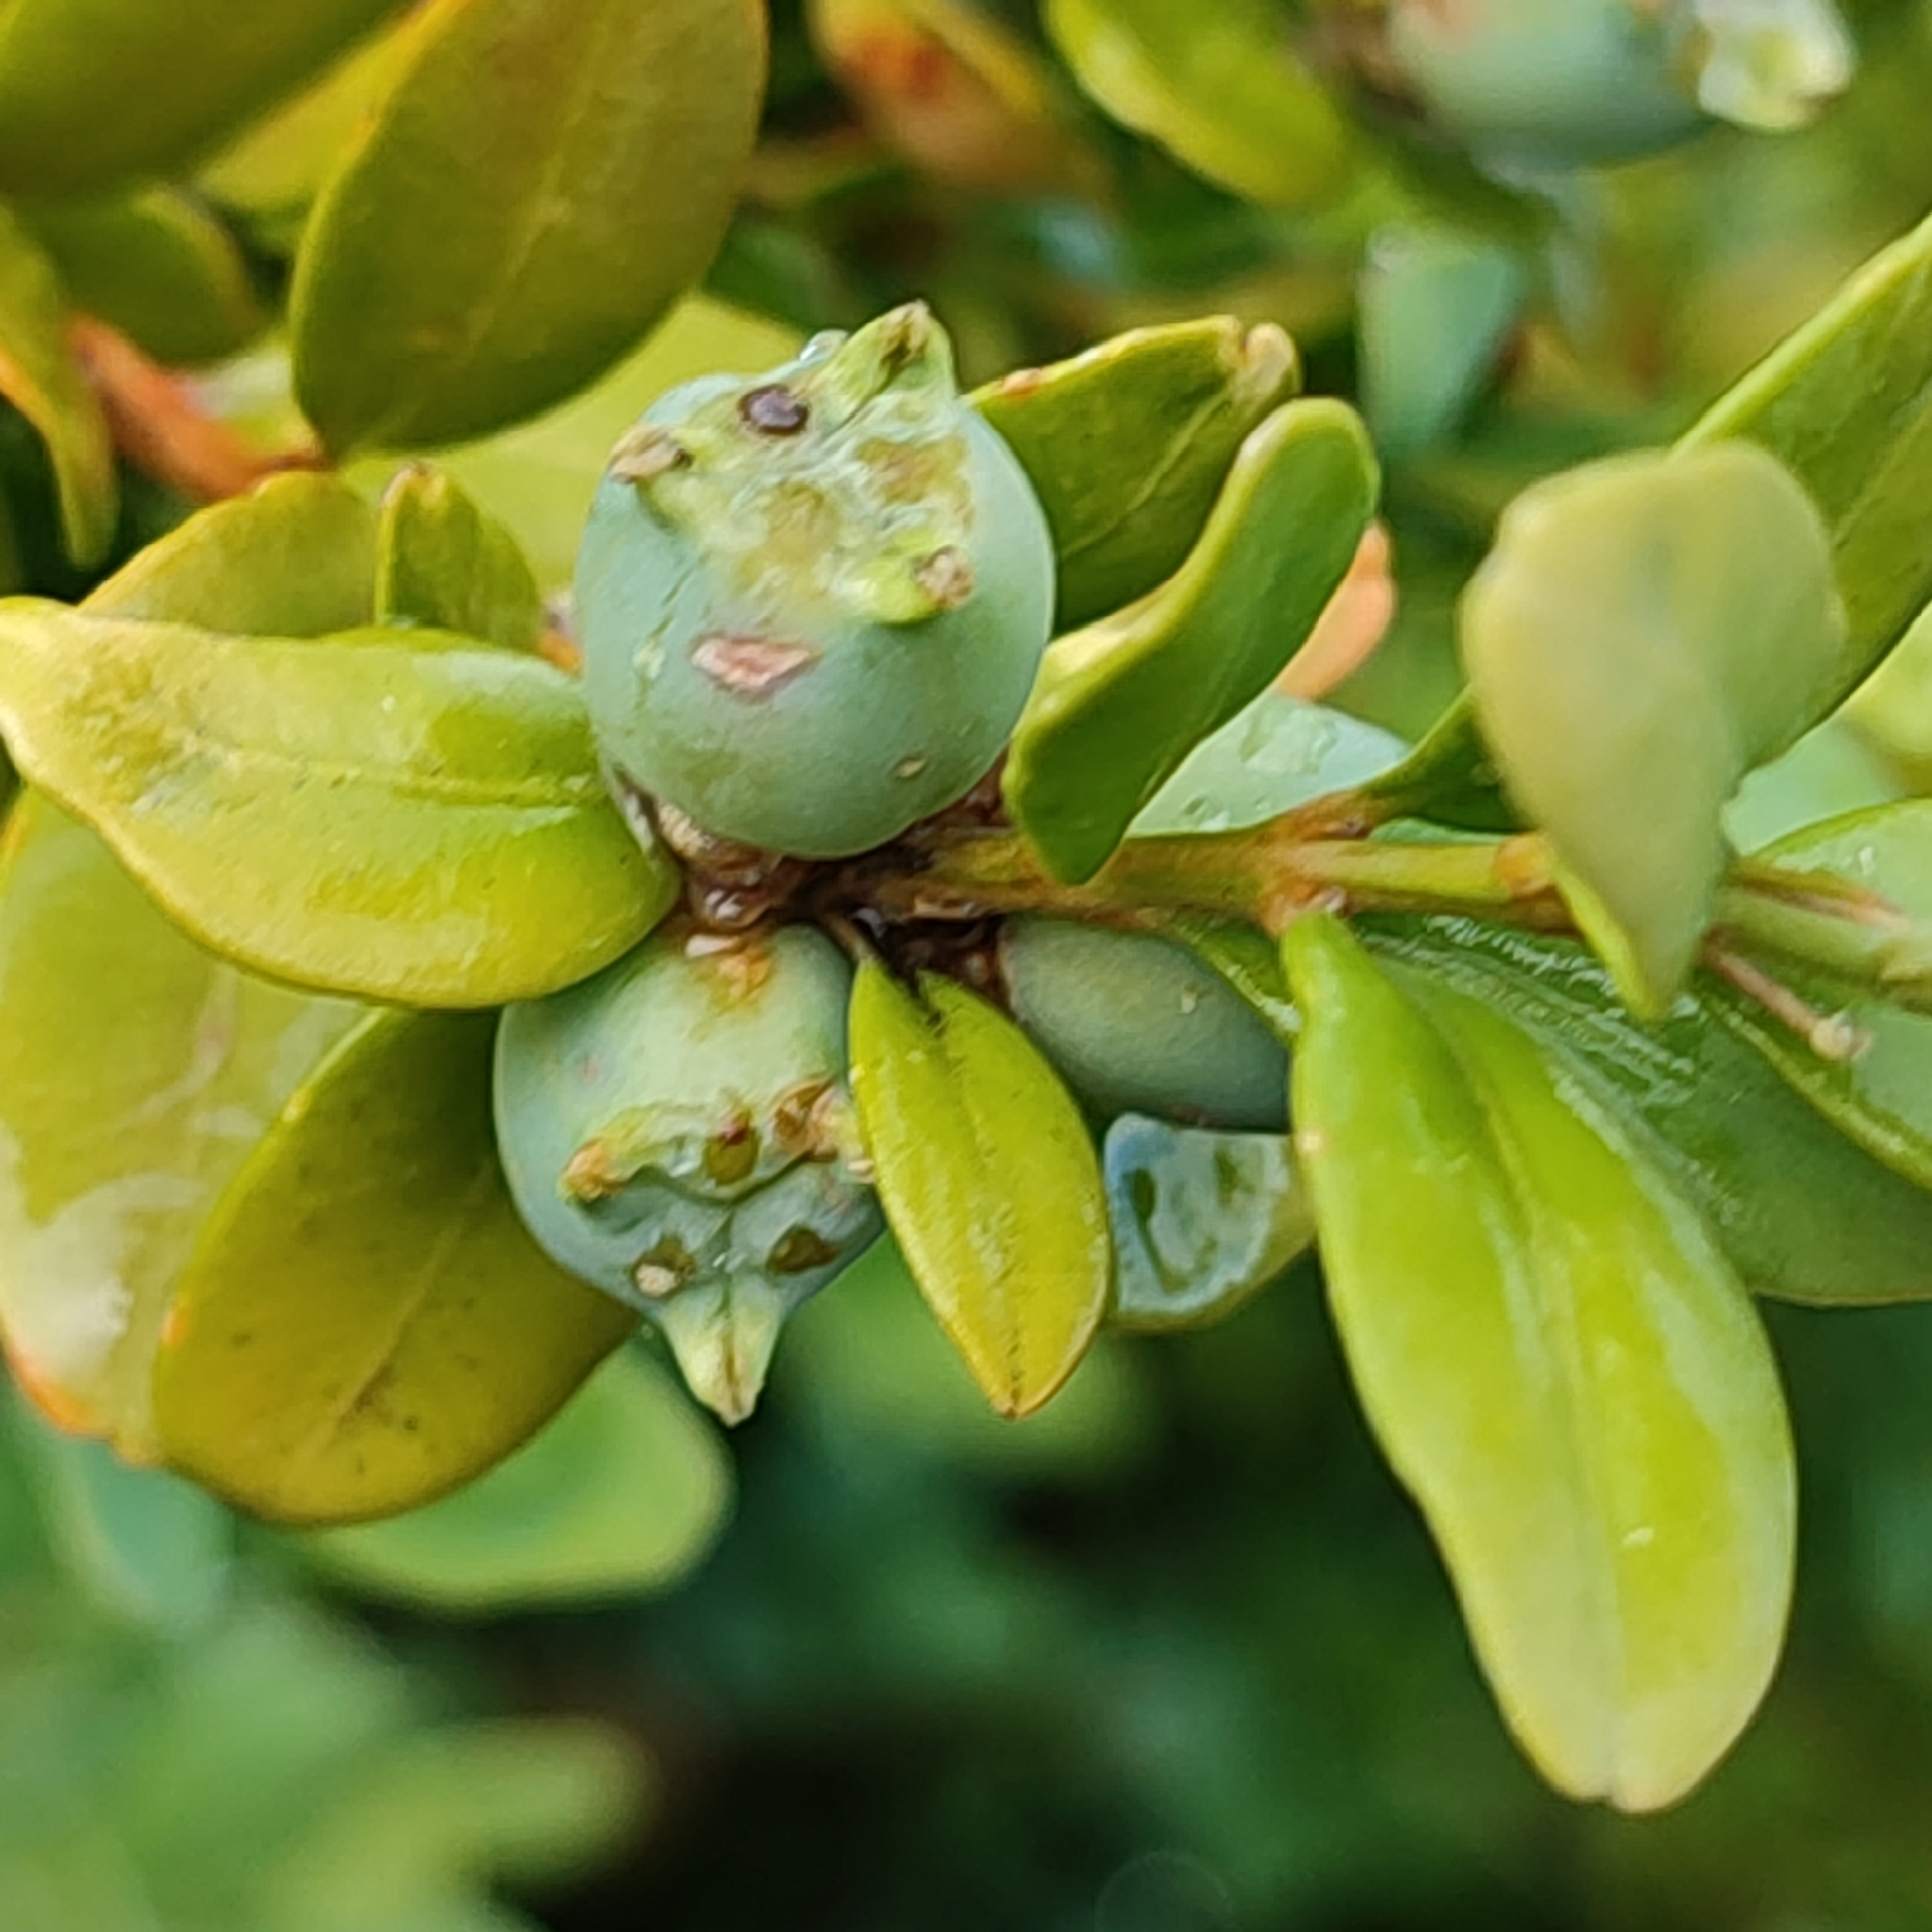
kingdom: Plantae
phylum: Tracheophyta
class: Magnoliopsida
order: Buxales
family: Buxaceae
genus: Buxus
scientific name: Buxus sempervirens
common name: Box
